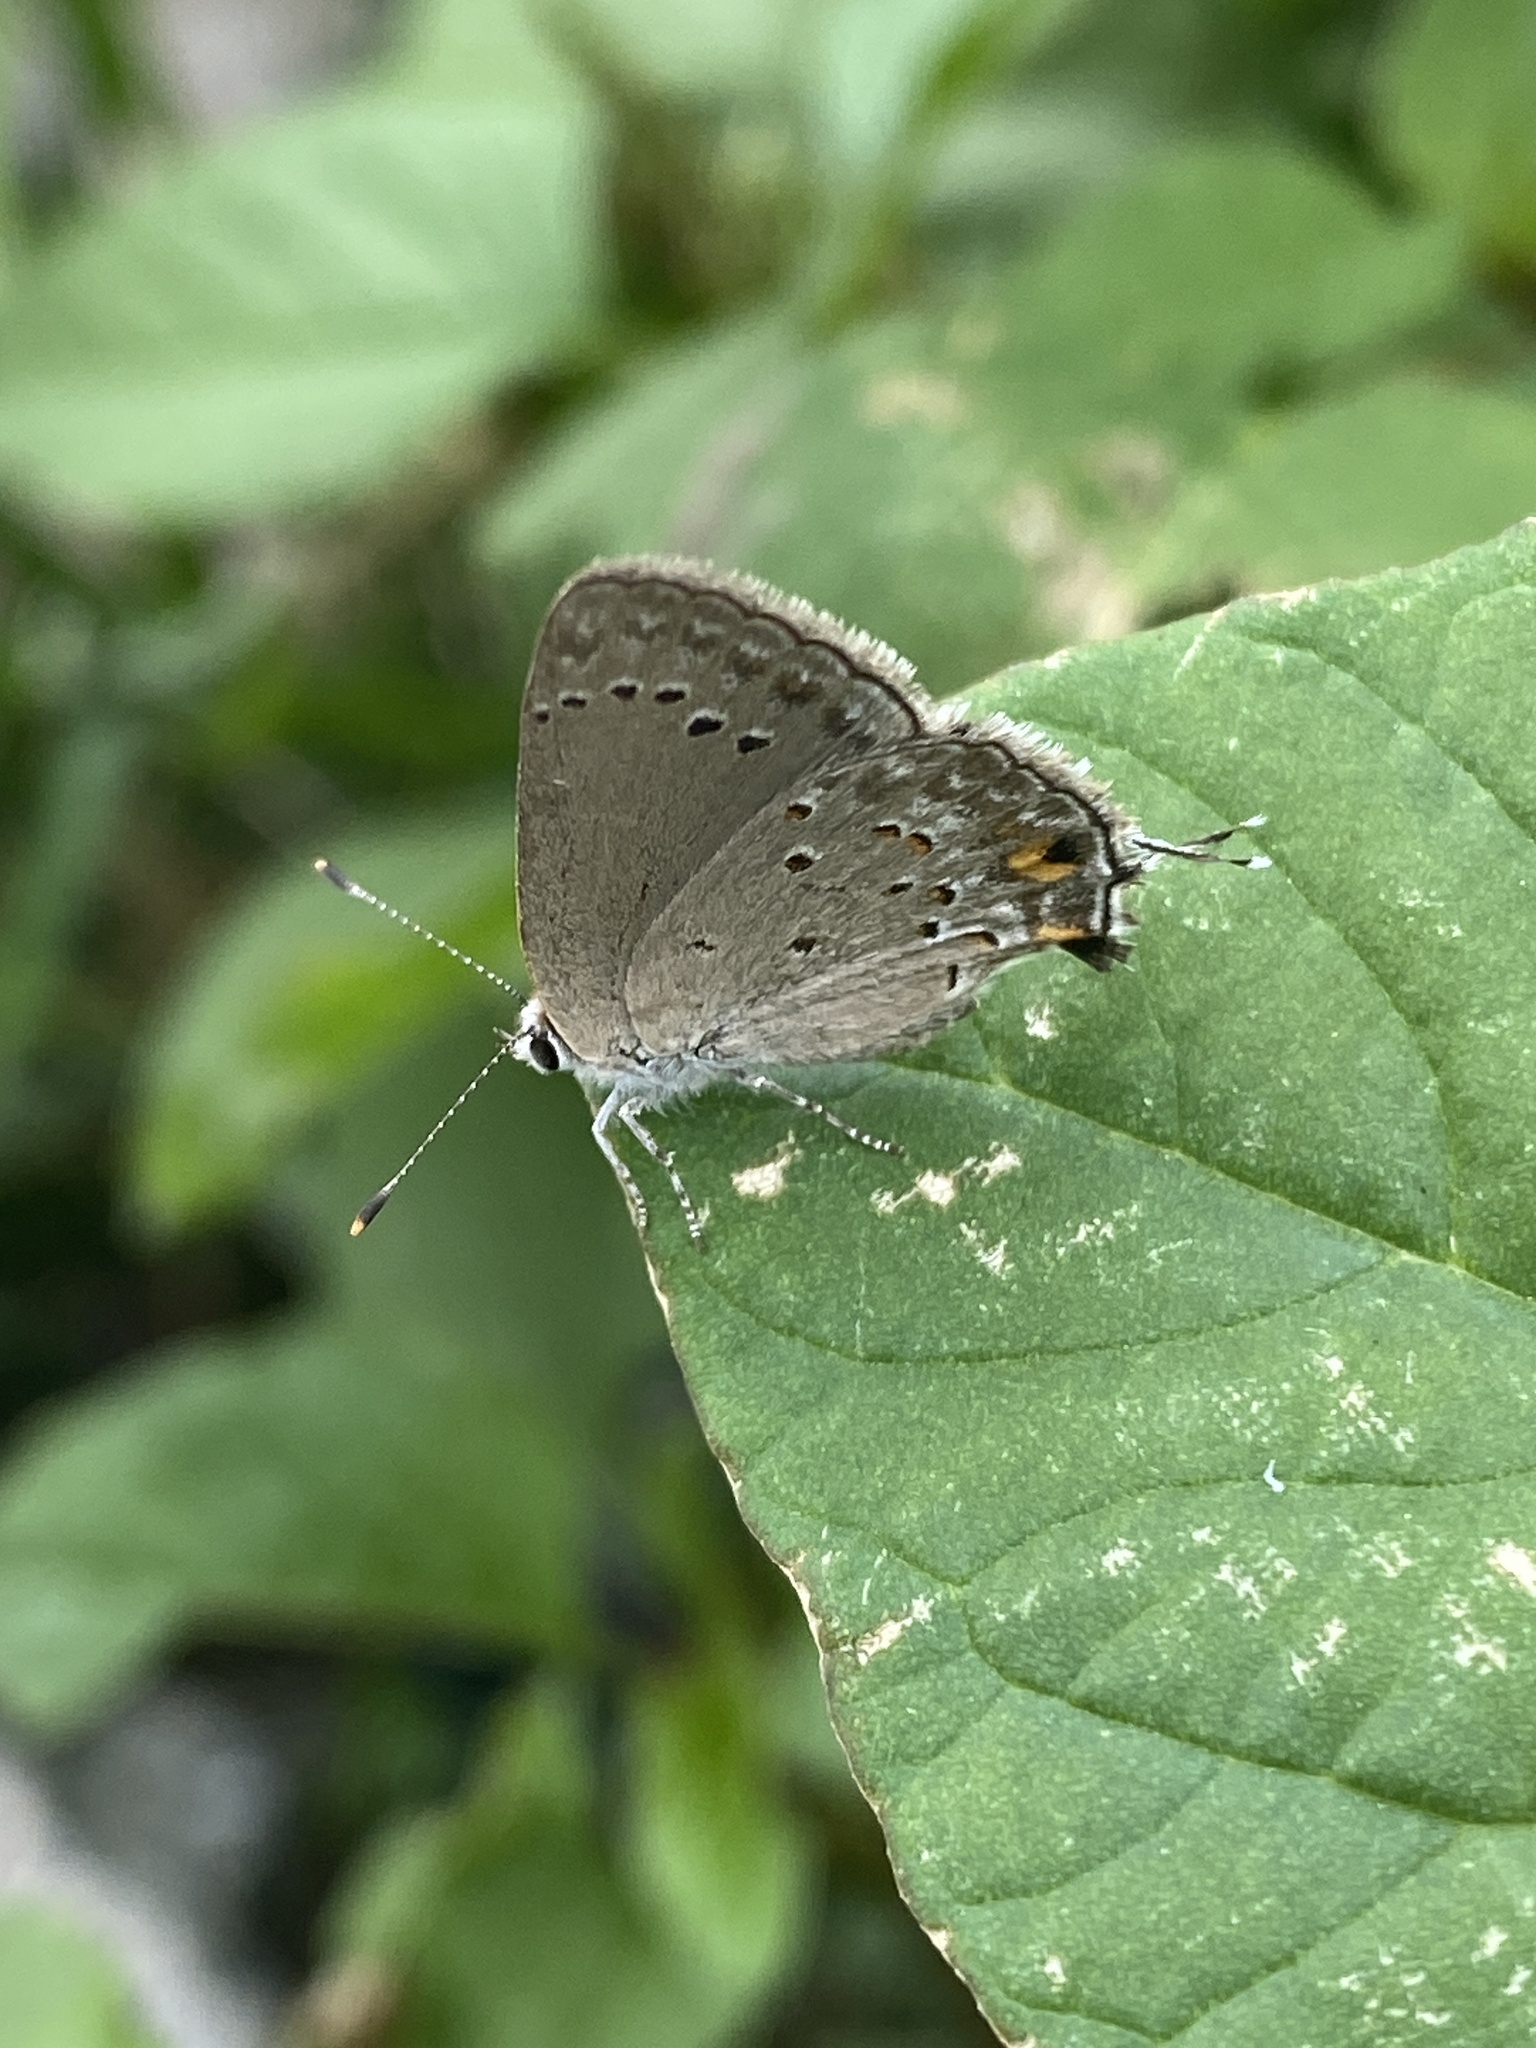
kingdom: Animalia
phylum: Arthropoda
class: Insecta
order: Lepidoptera
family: Lycaenidae
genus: Strymon
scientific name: Strymon eurytulus
